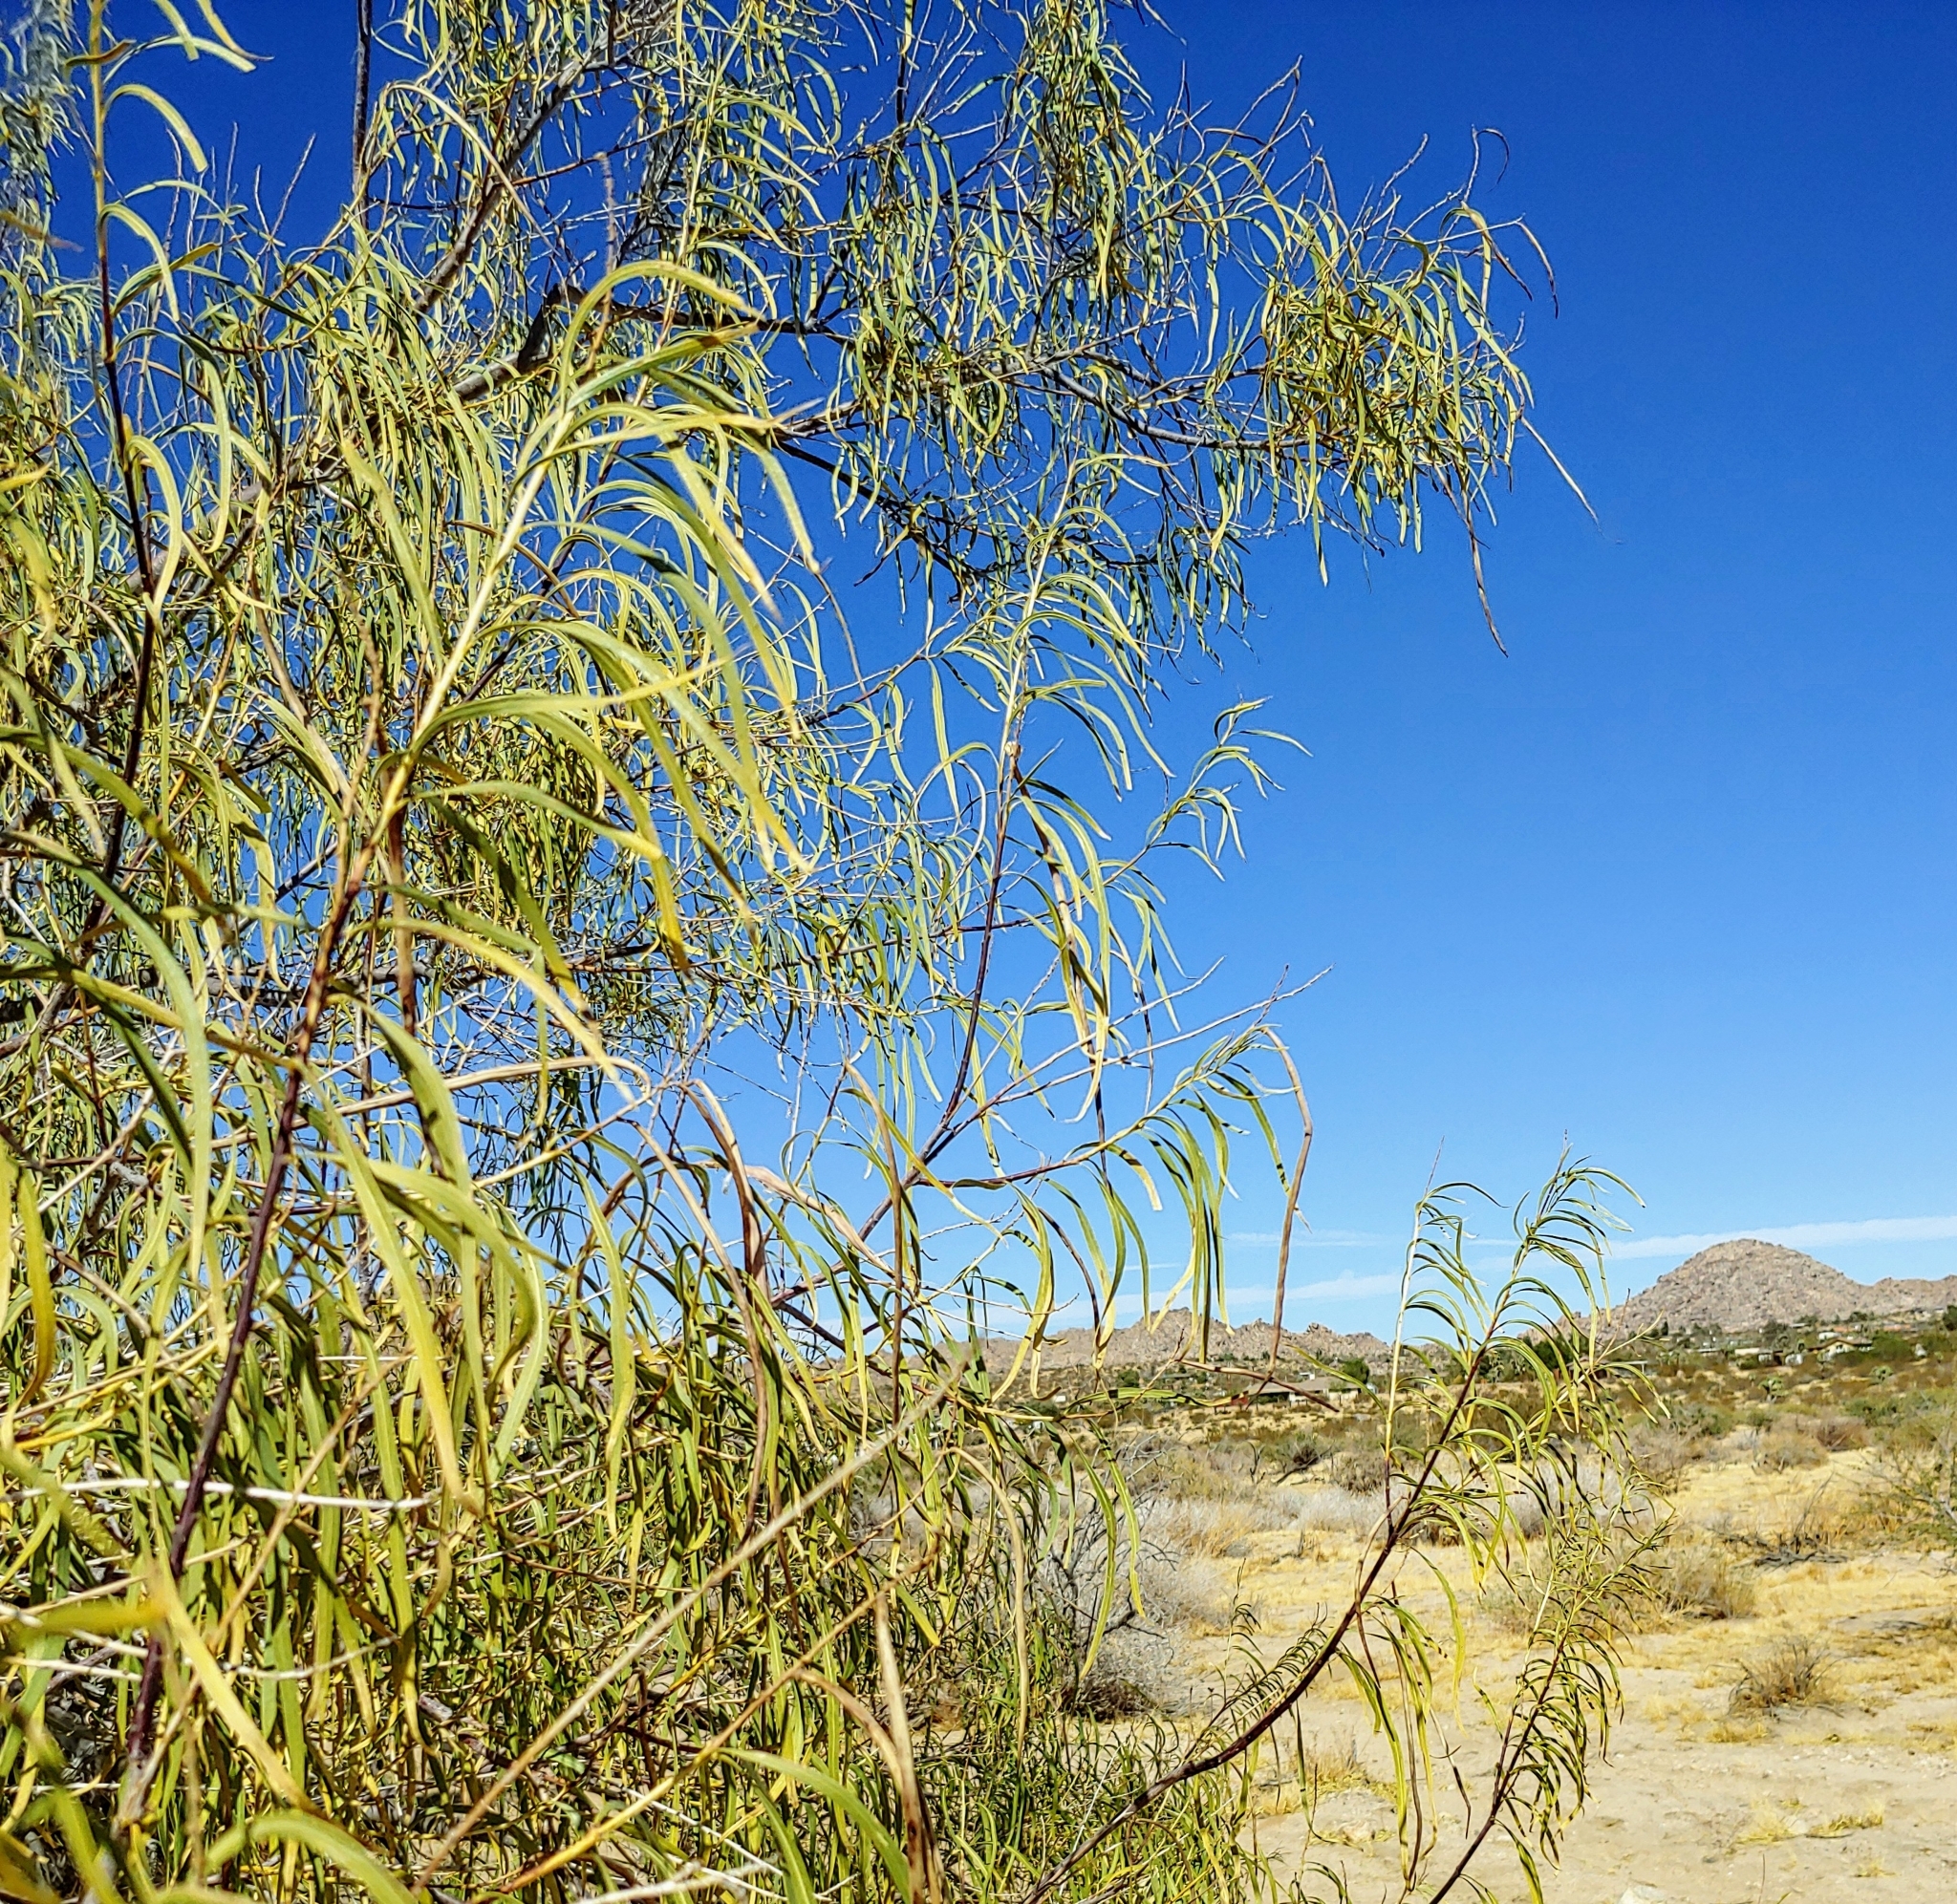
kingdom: Plantae
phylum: Tracheophyta
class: Magnoliopsida
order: Lamiales
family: Bignoniaceae
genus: Chilopsis
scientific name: Chilopsis linearis
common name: Desert-willow
